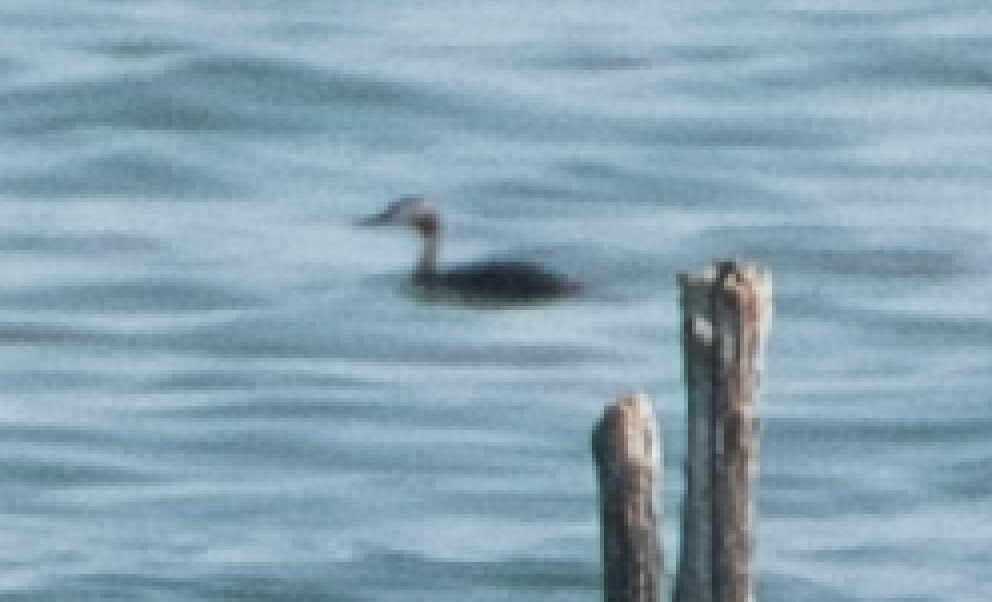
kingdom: Animalia
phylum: Chordata
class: Aves
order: Podicipediformes
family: Podicipedidae
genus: Podiceps
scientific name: Podiceps cristatus
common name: Great crested grebe
